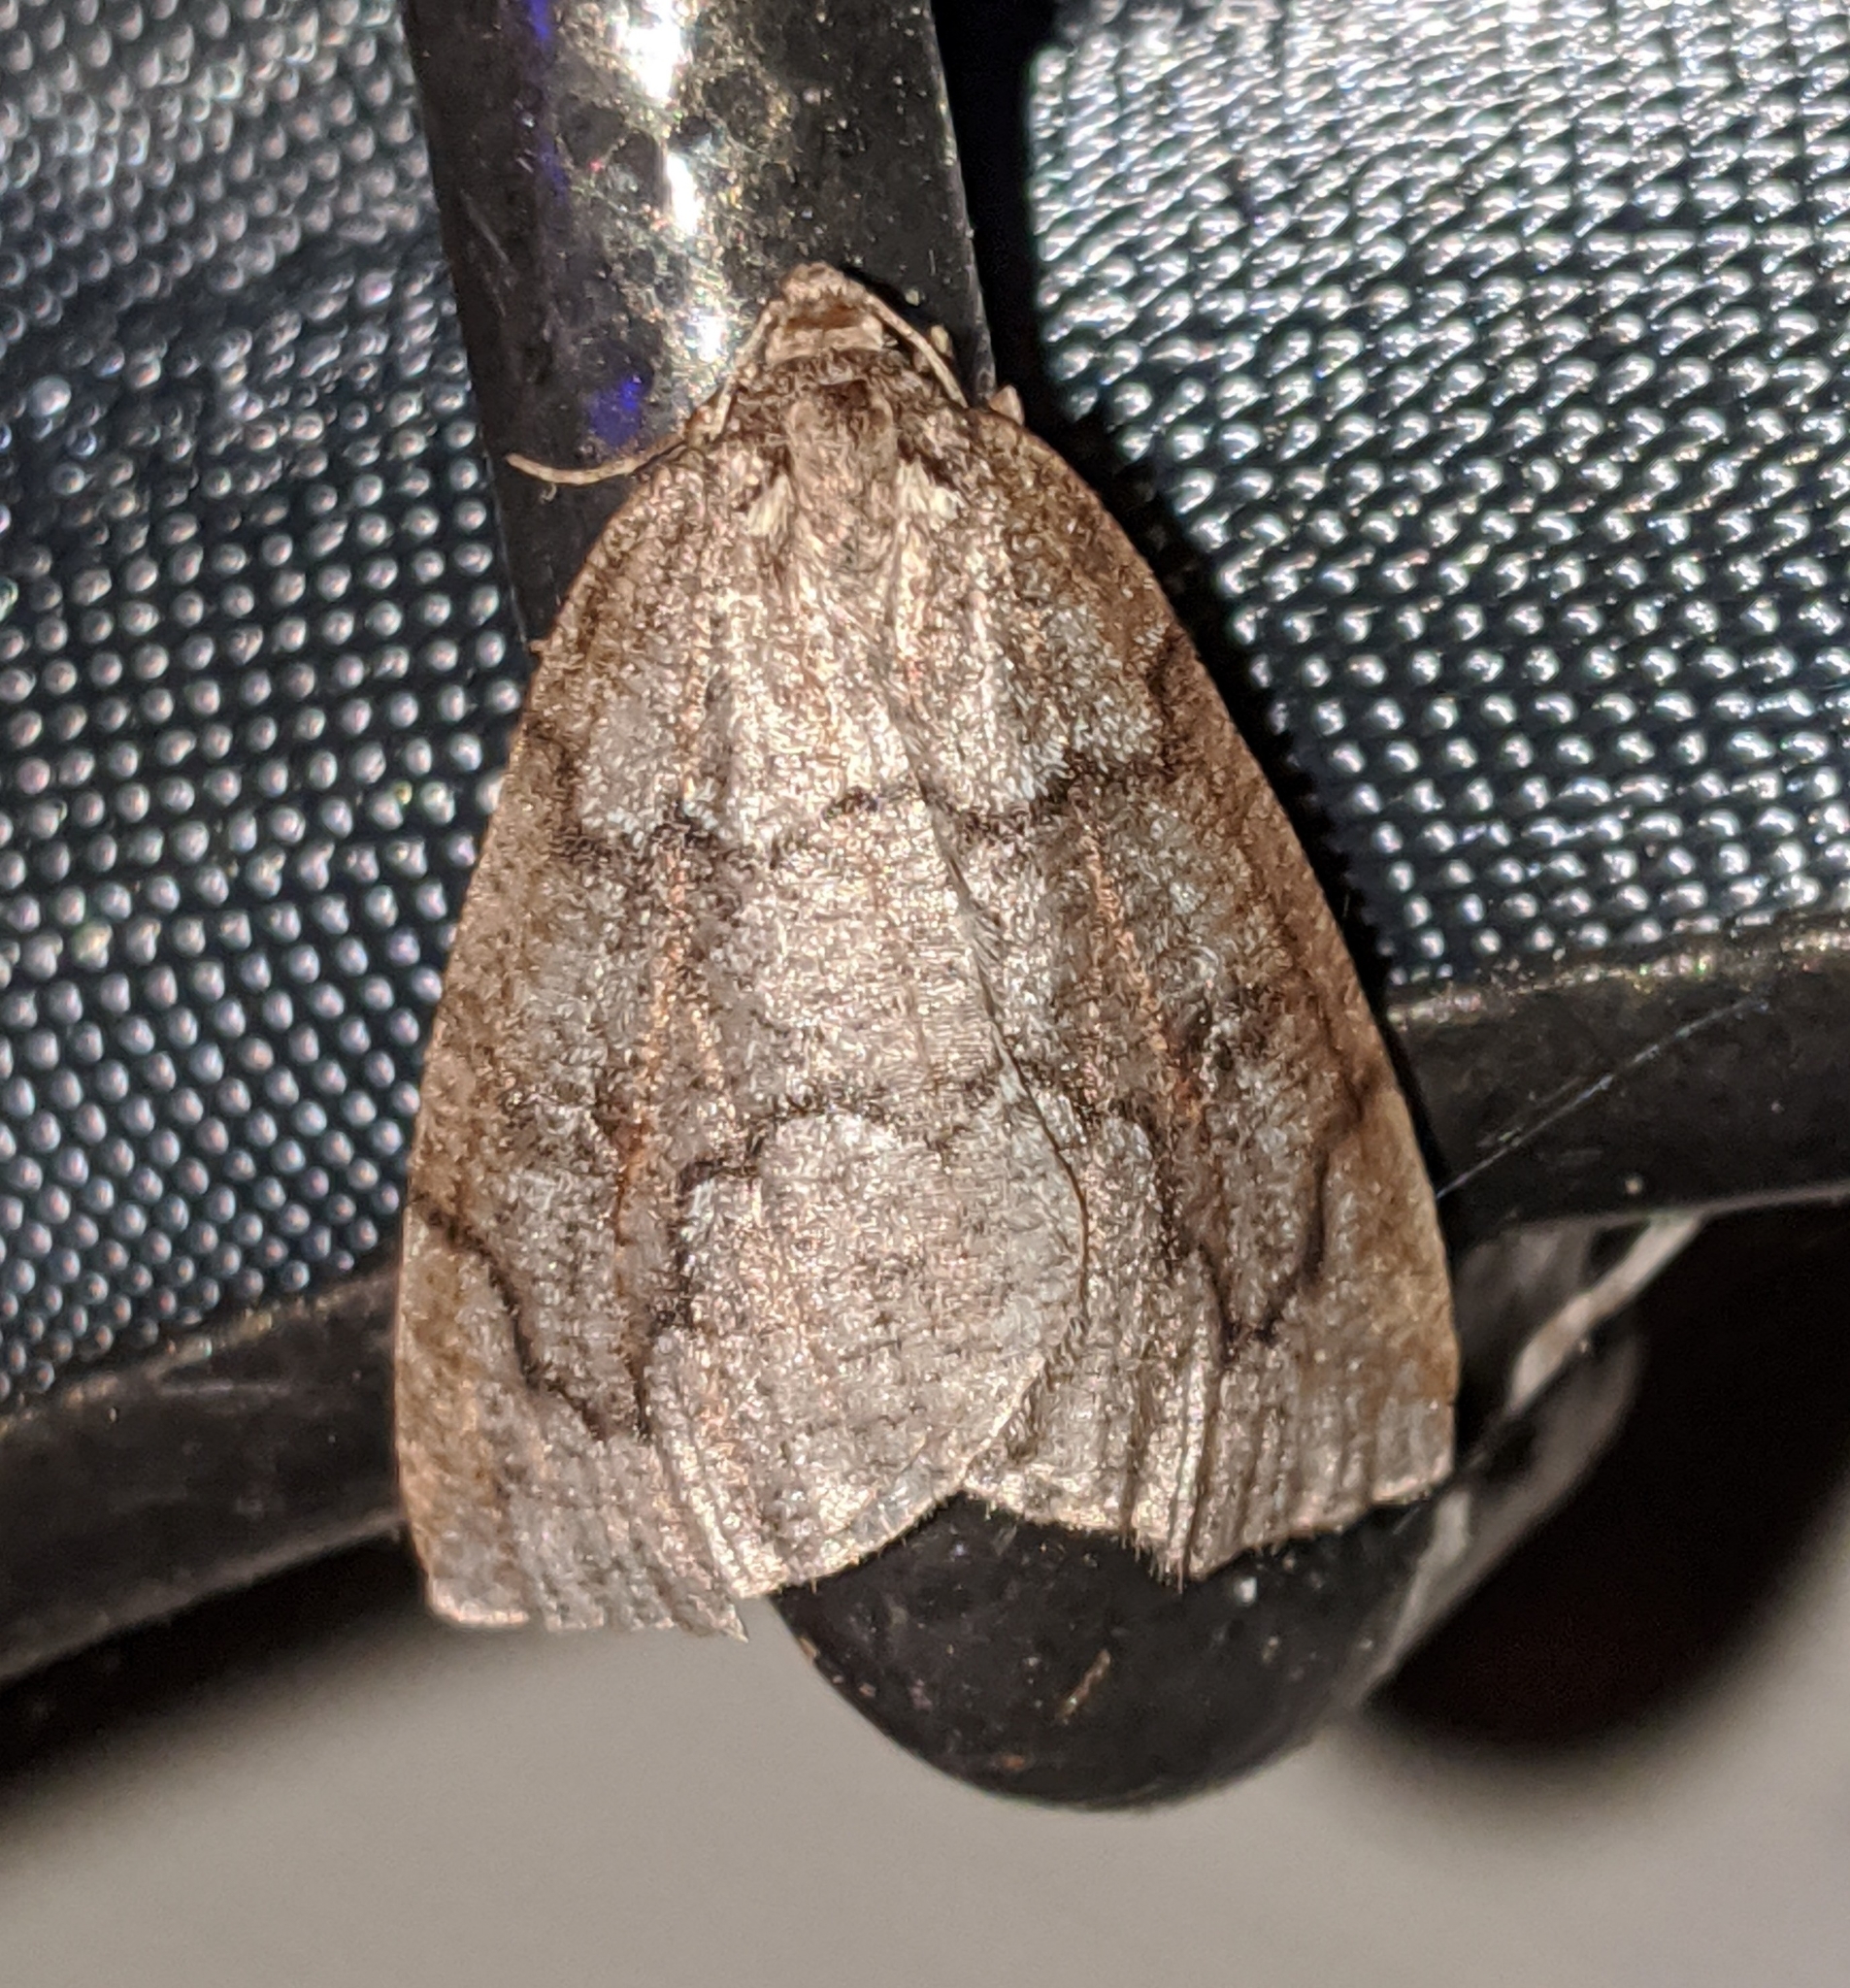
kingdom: Animalia
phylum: Arthropoda
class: Insecta
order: Lepidoptera
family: Geometridae
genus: Spodolepis
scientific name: Spodolepis danbyi
